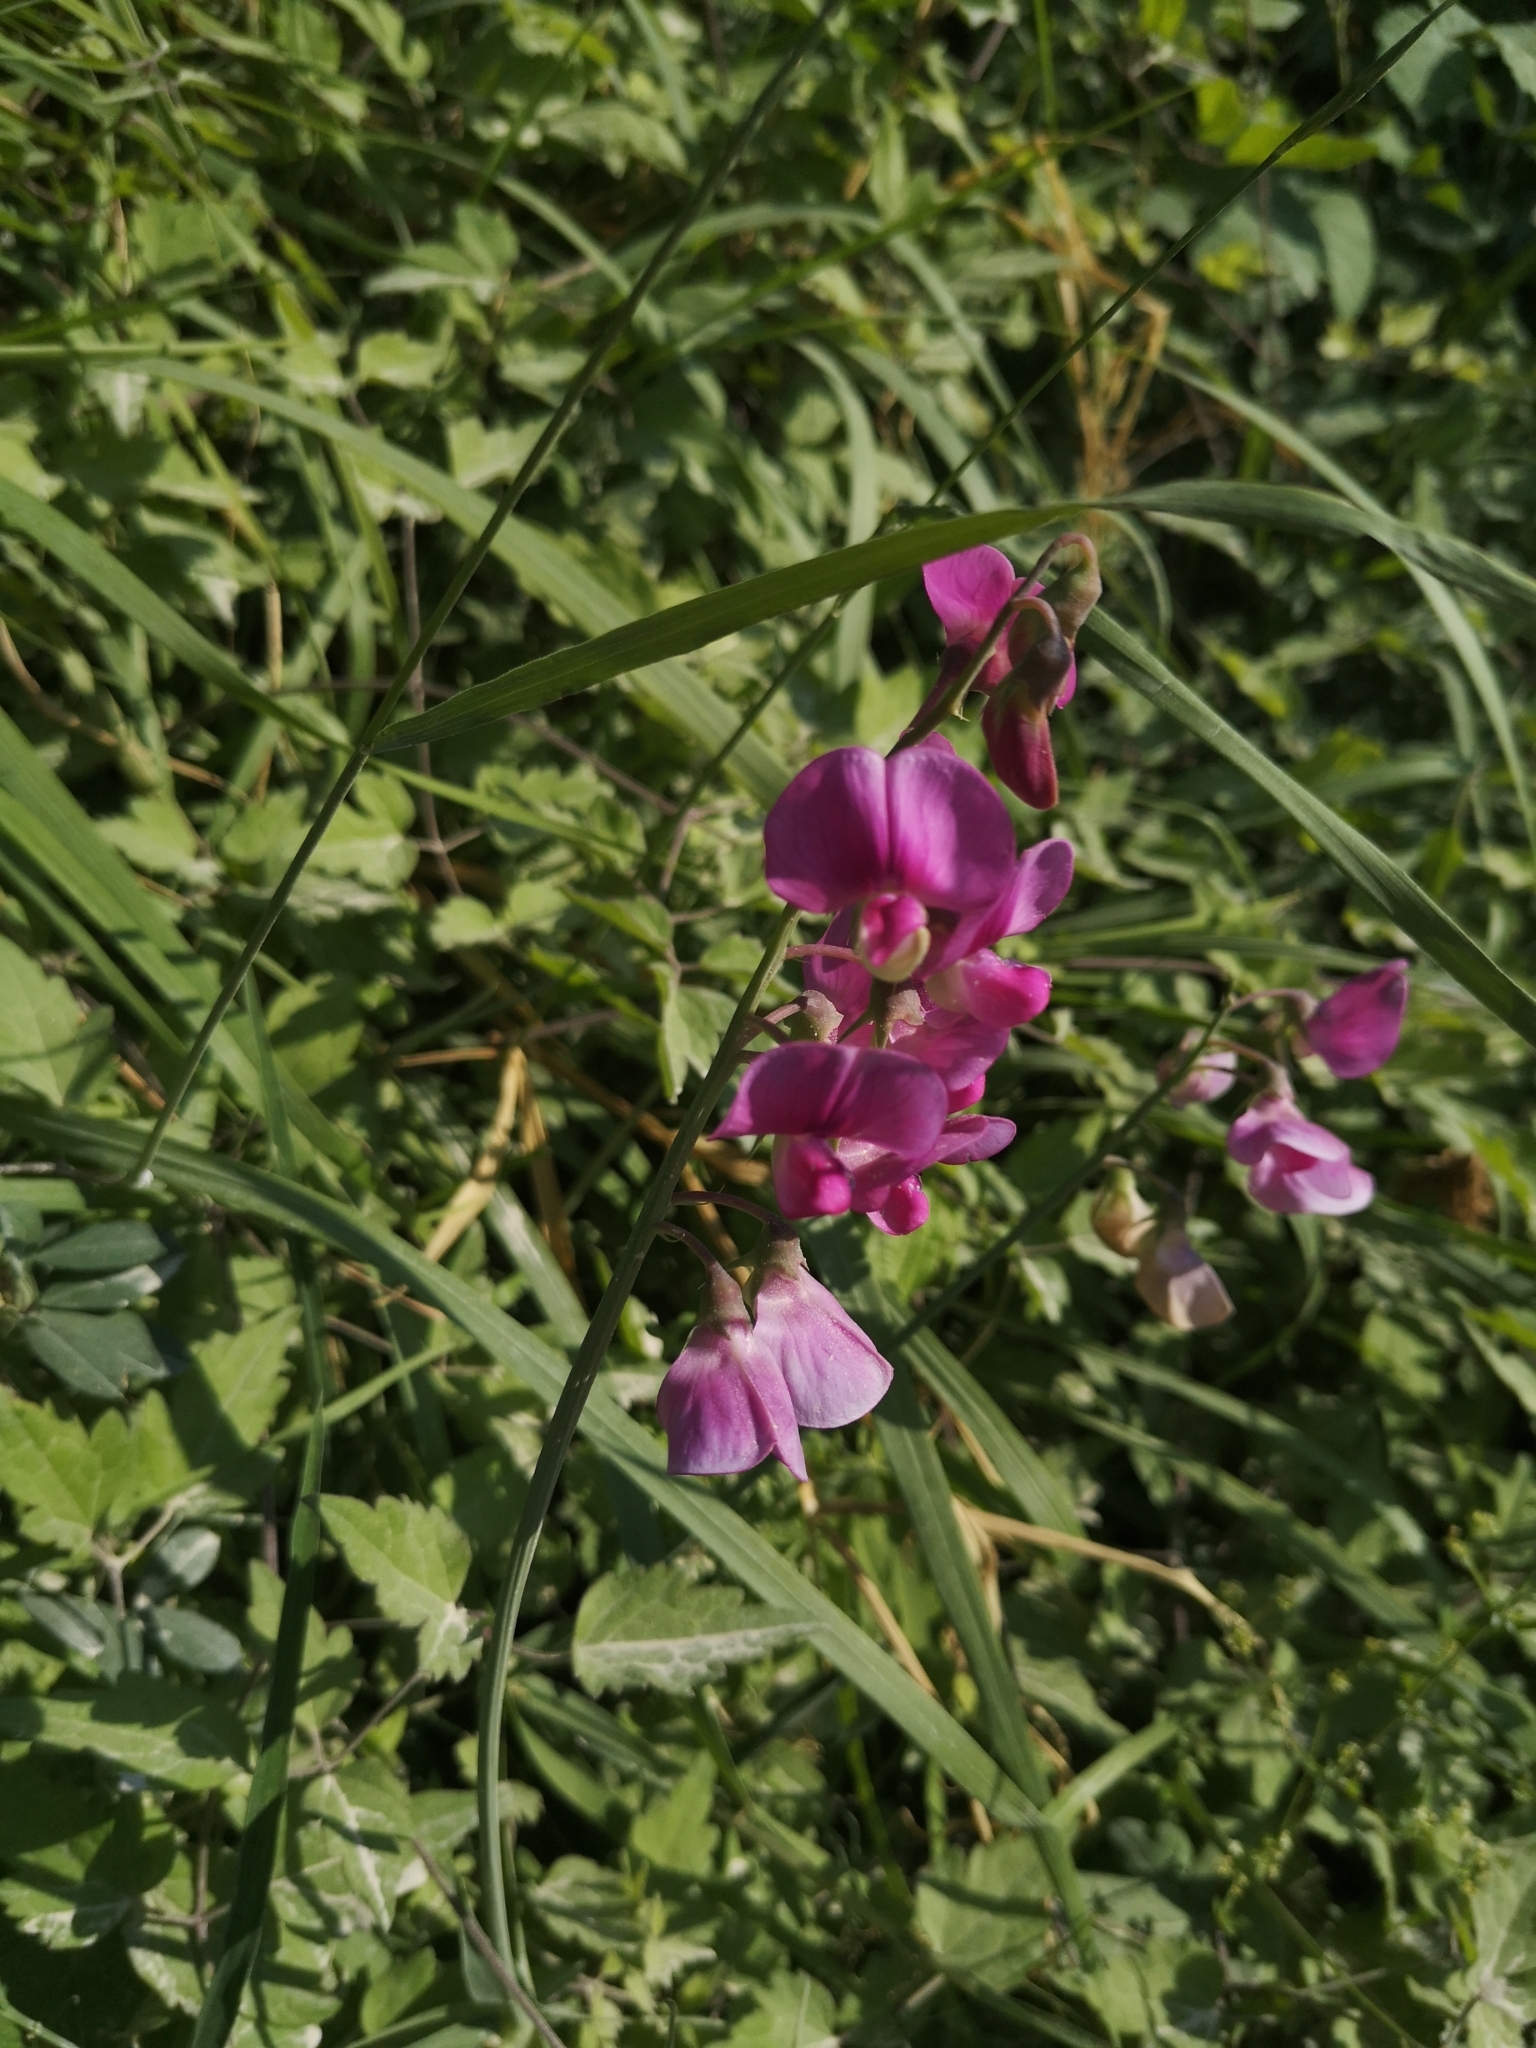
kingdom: Plantae
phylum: Tracheophyta
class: Magnoliopsida
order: Fabales
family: Fabaceae
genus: Lathyrus
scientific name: Lathyrus latifolius
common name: Perennial pea
